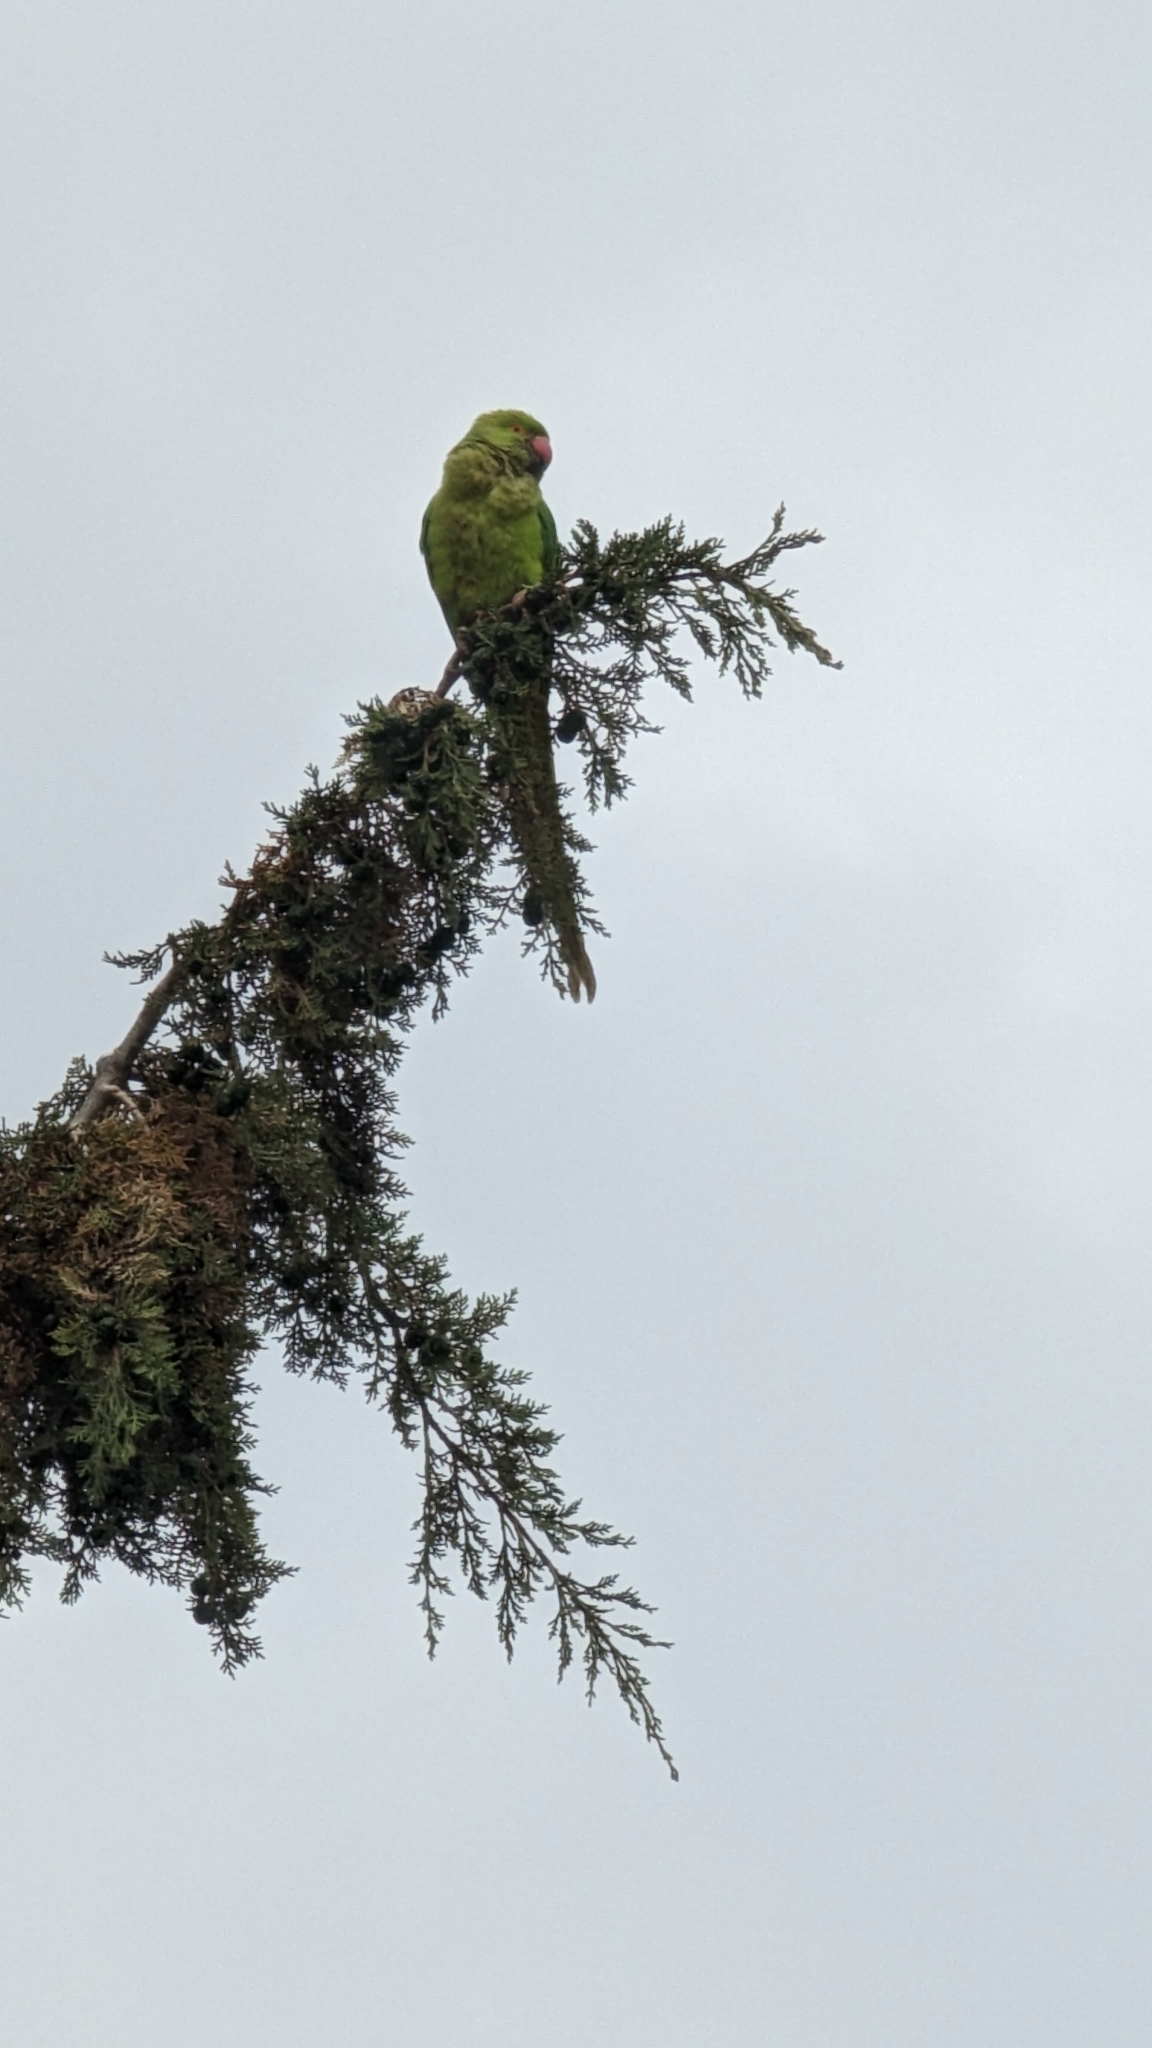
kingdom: Animalia
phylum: Chordata
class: Aves
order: Psittaciformes
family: Psittacidae
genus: Psittacula
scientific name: Psittacula krameri
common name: Rose-ringed parakeet
